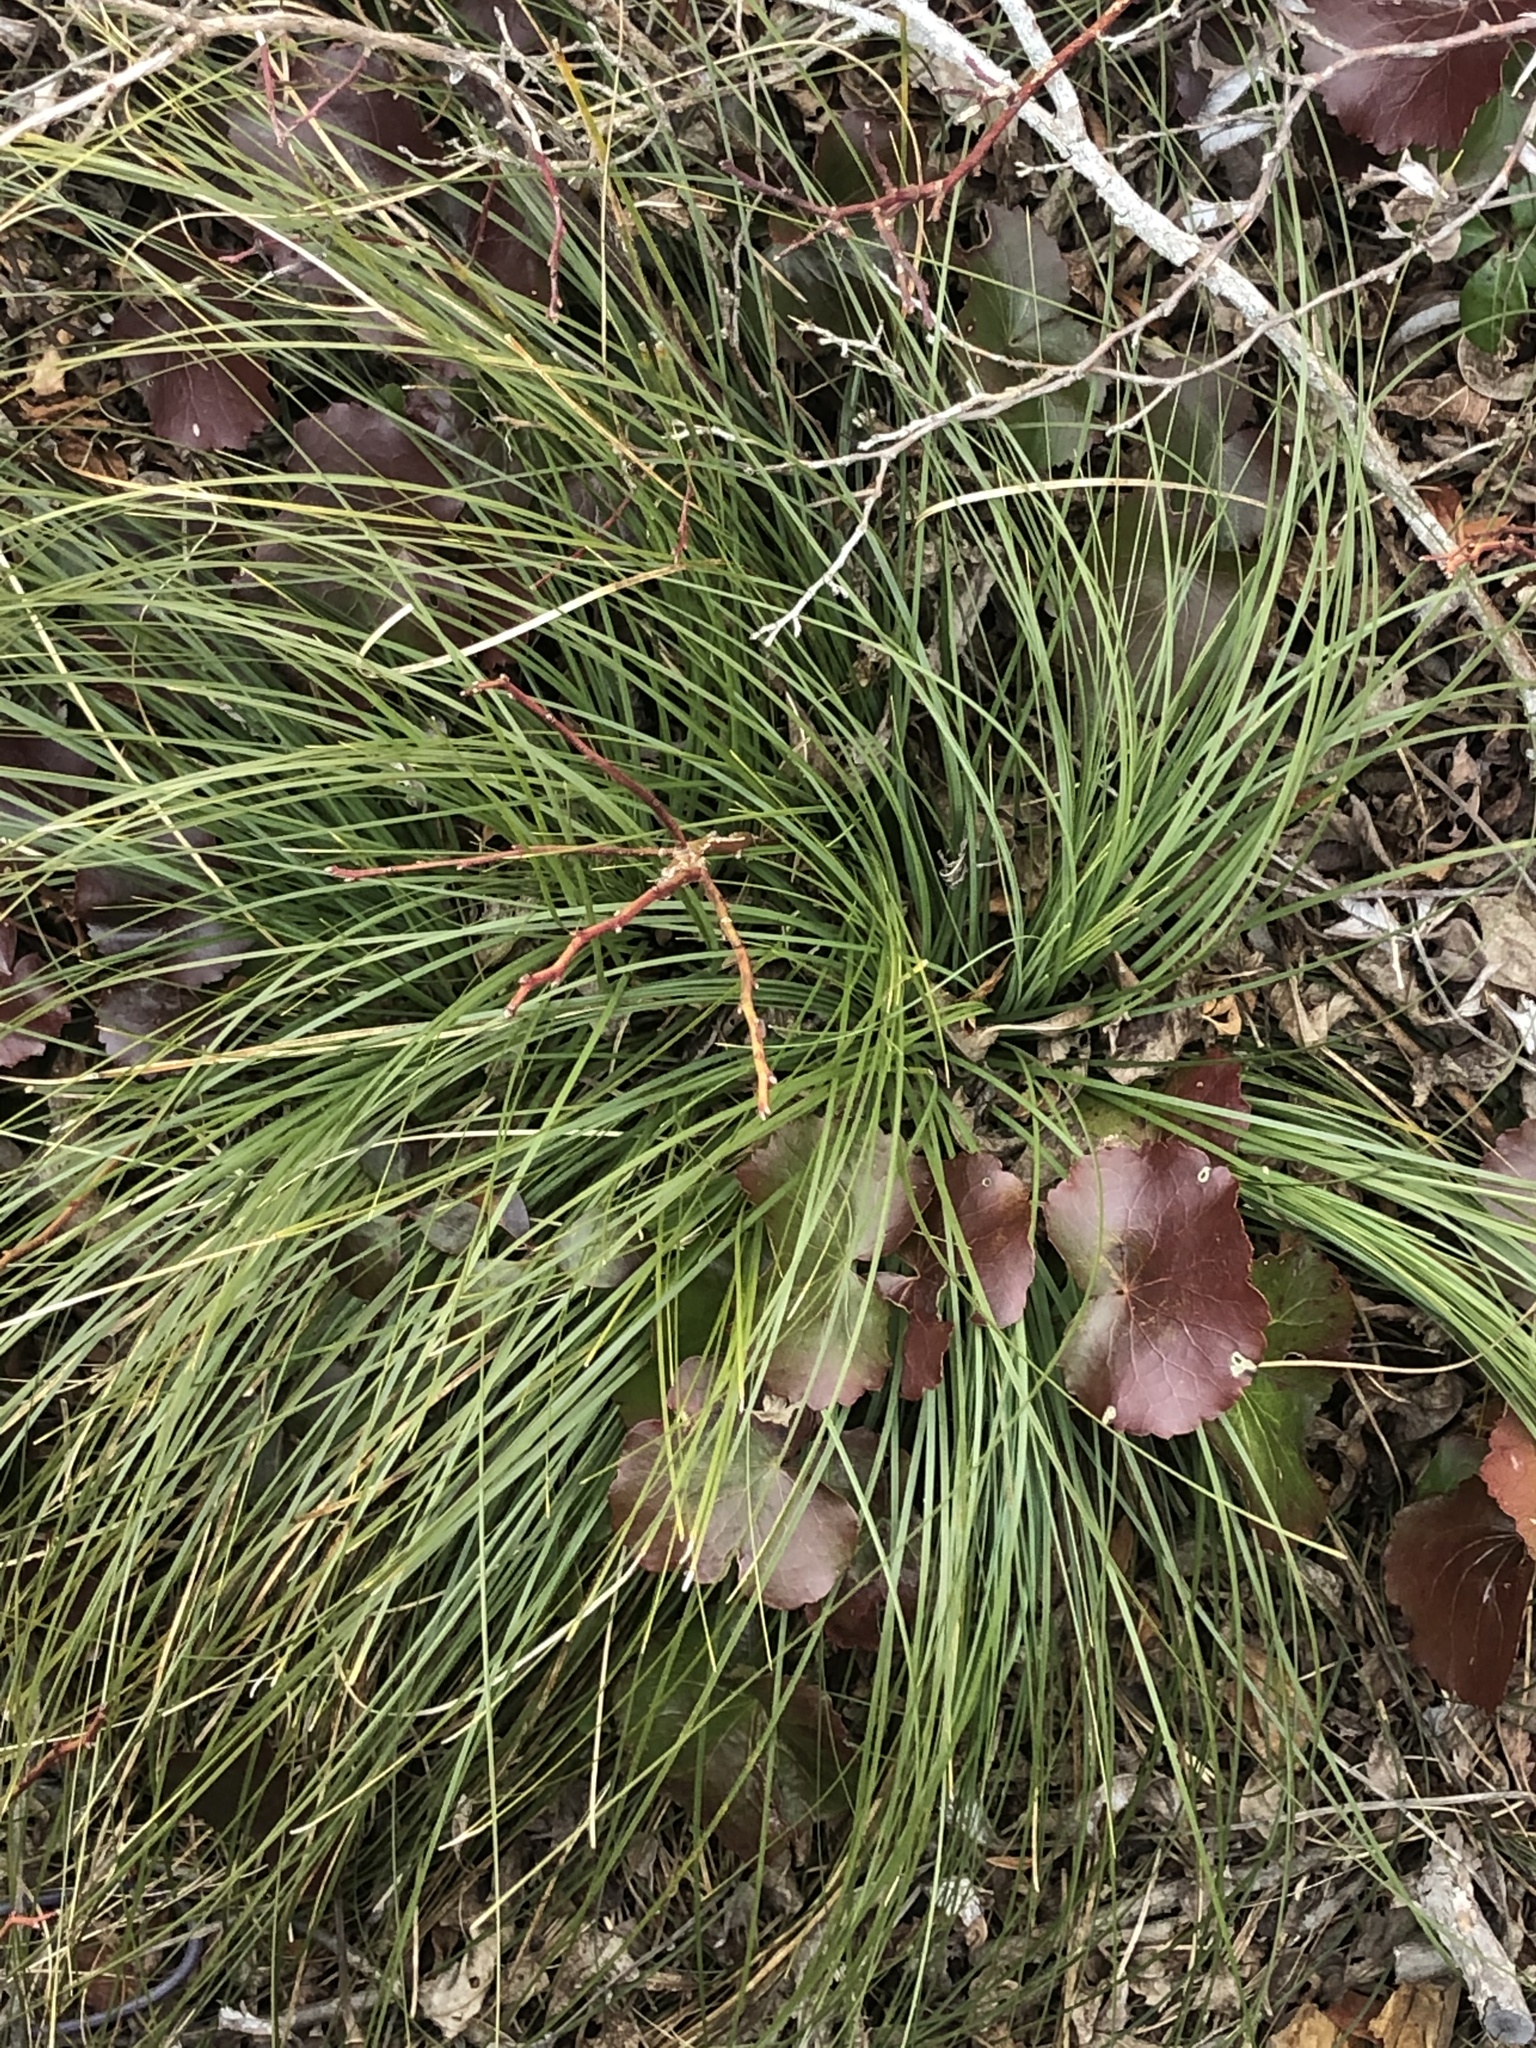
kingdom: Plantae
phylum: Tracheophyta
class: Liliopsida
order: Liliales
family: Melanthiaceae
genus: Xerophyllum
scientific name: Xerophyllum asphodeloides
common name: Mountain-asphodel
